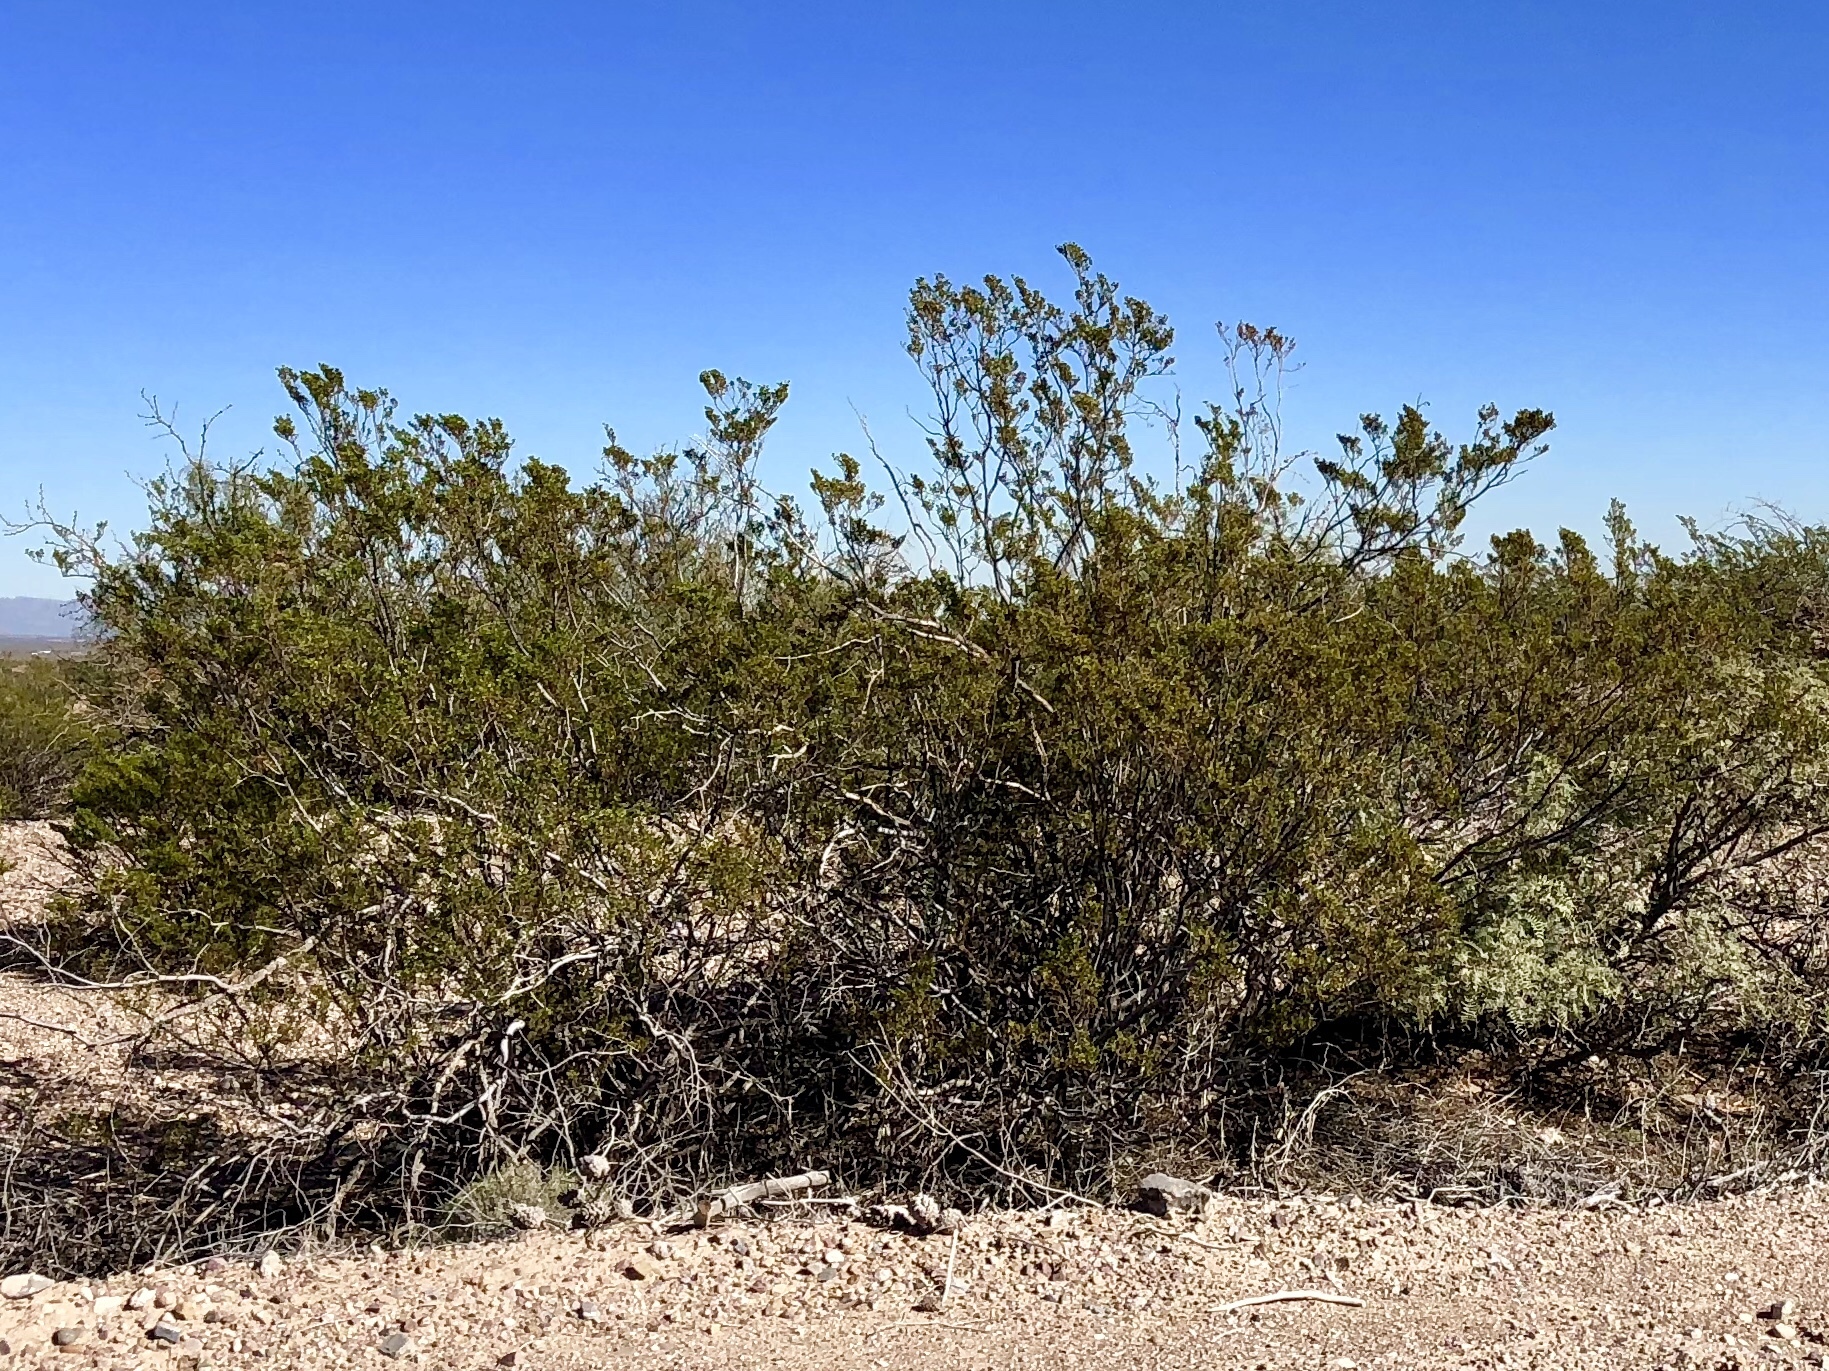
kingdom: Plantae
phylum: Tracheophyta
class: Magnoliopsida
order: Zygophyllales
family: Zygophyllaceae
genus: Larrea
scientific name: Larrea tridentata
